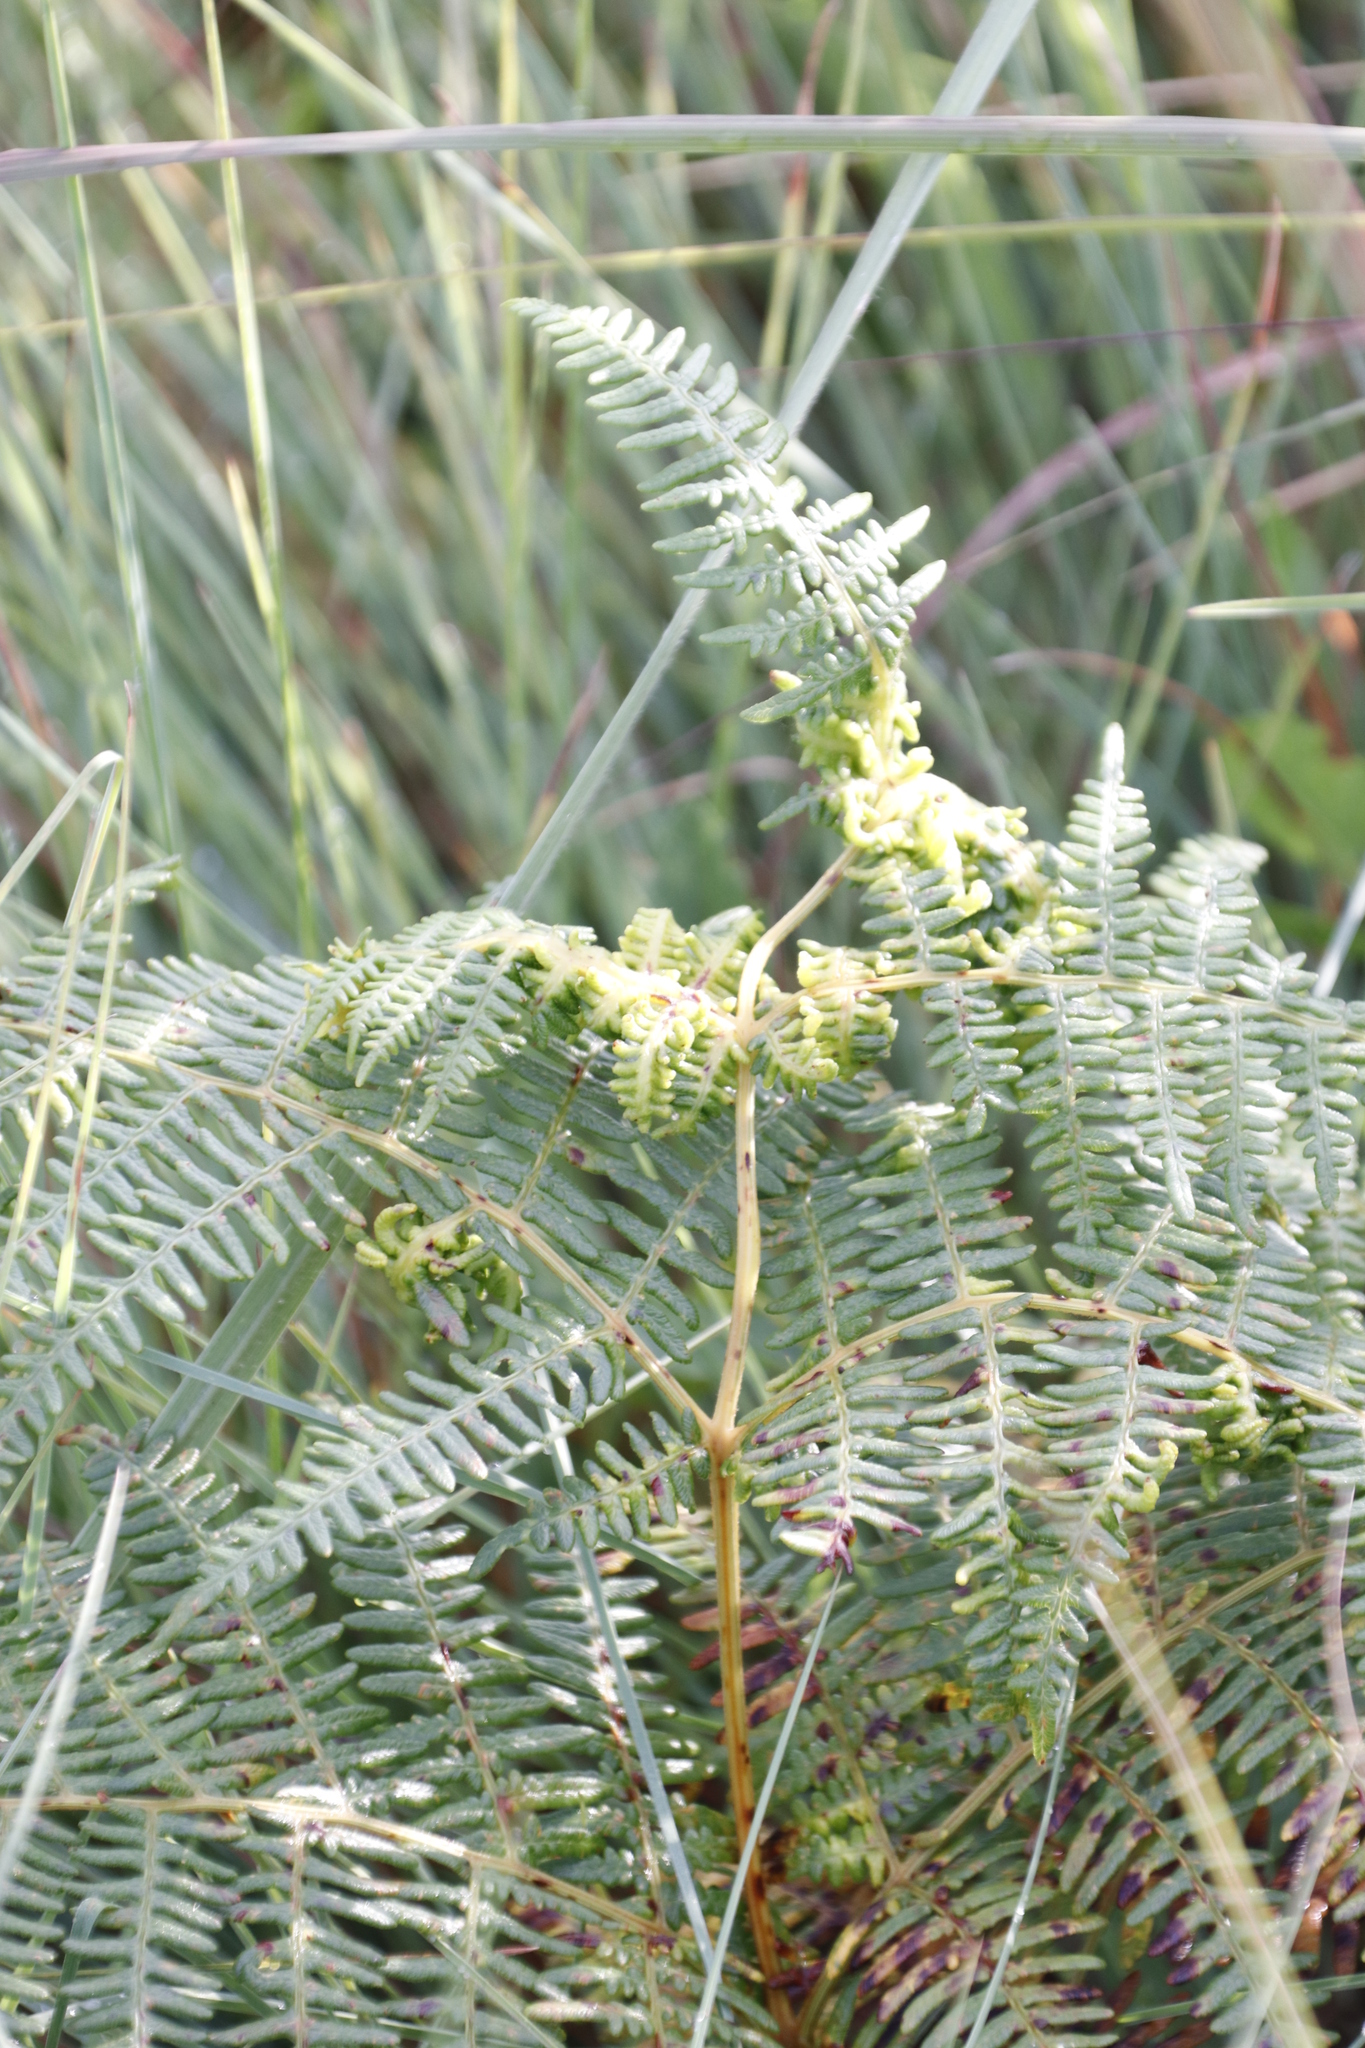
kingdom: Plantae
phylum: Tracheophyta
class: Polypodiopsida
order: Polypodiales
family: Dennstaedtiaceae
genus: Pteridium
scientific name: Pteridium aquilinum
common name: Bracken
